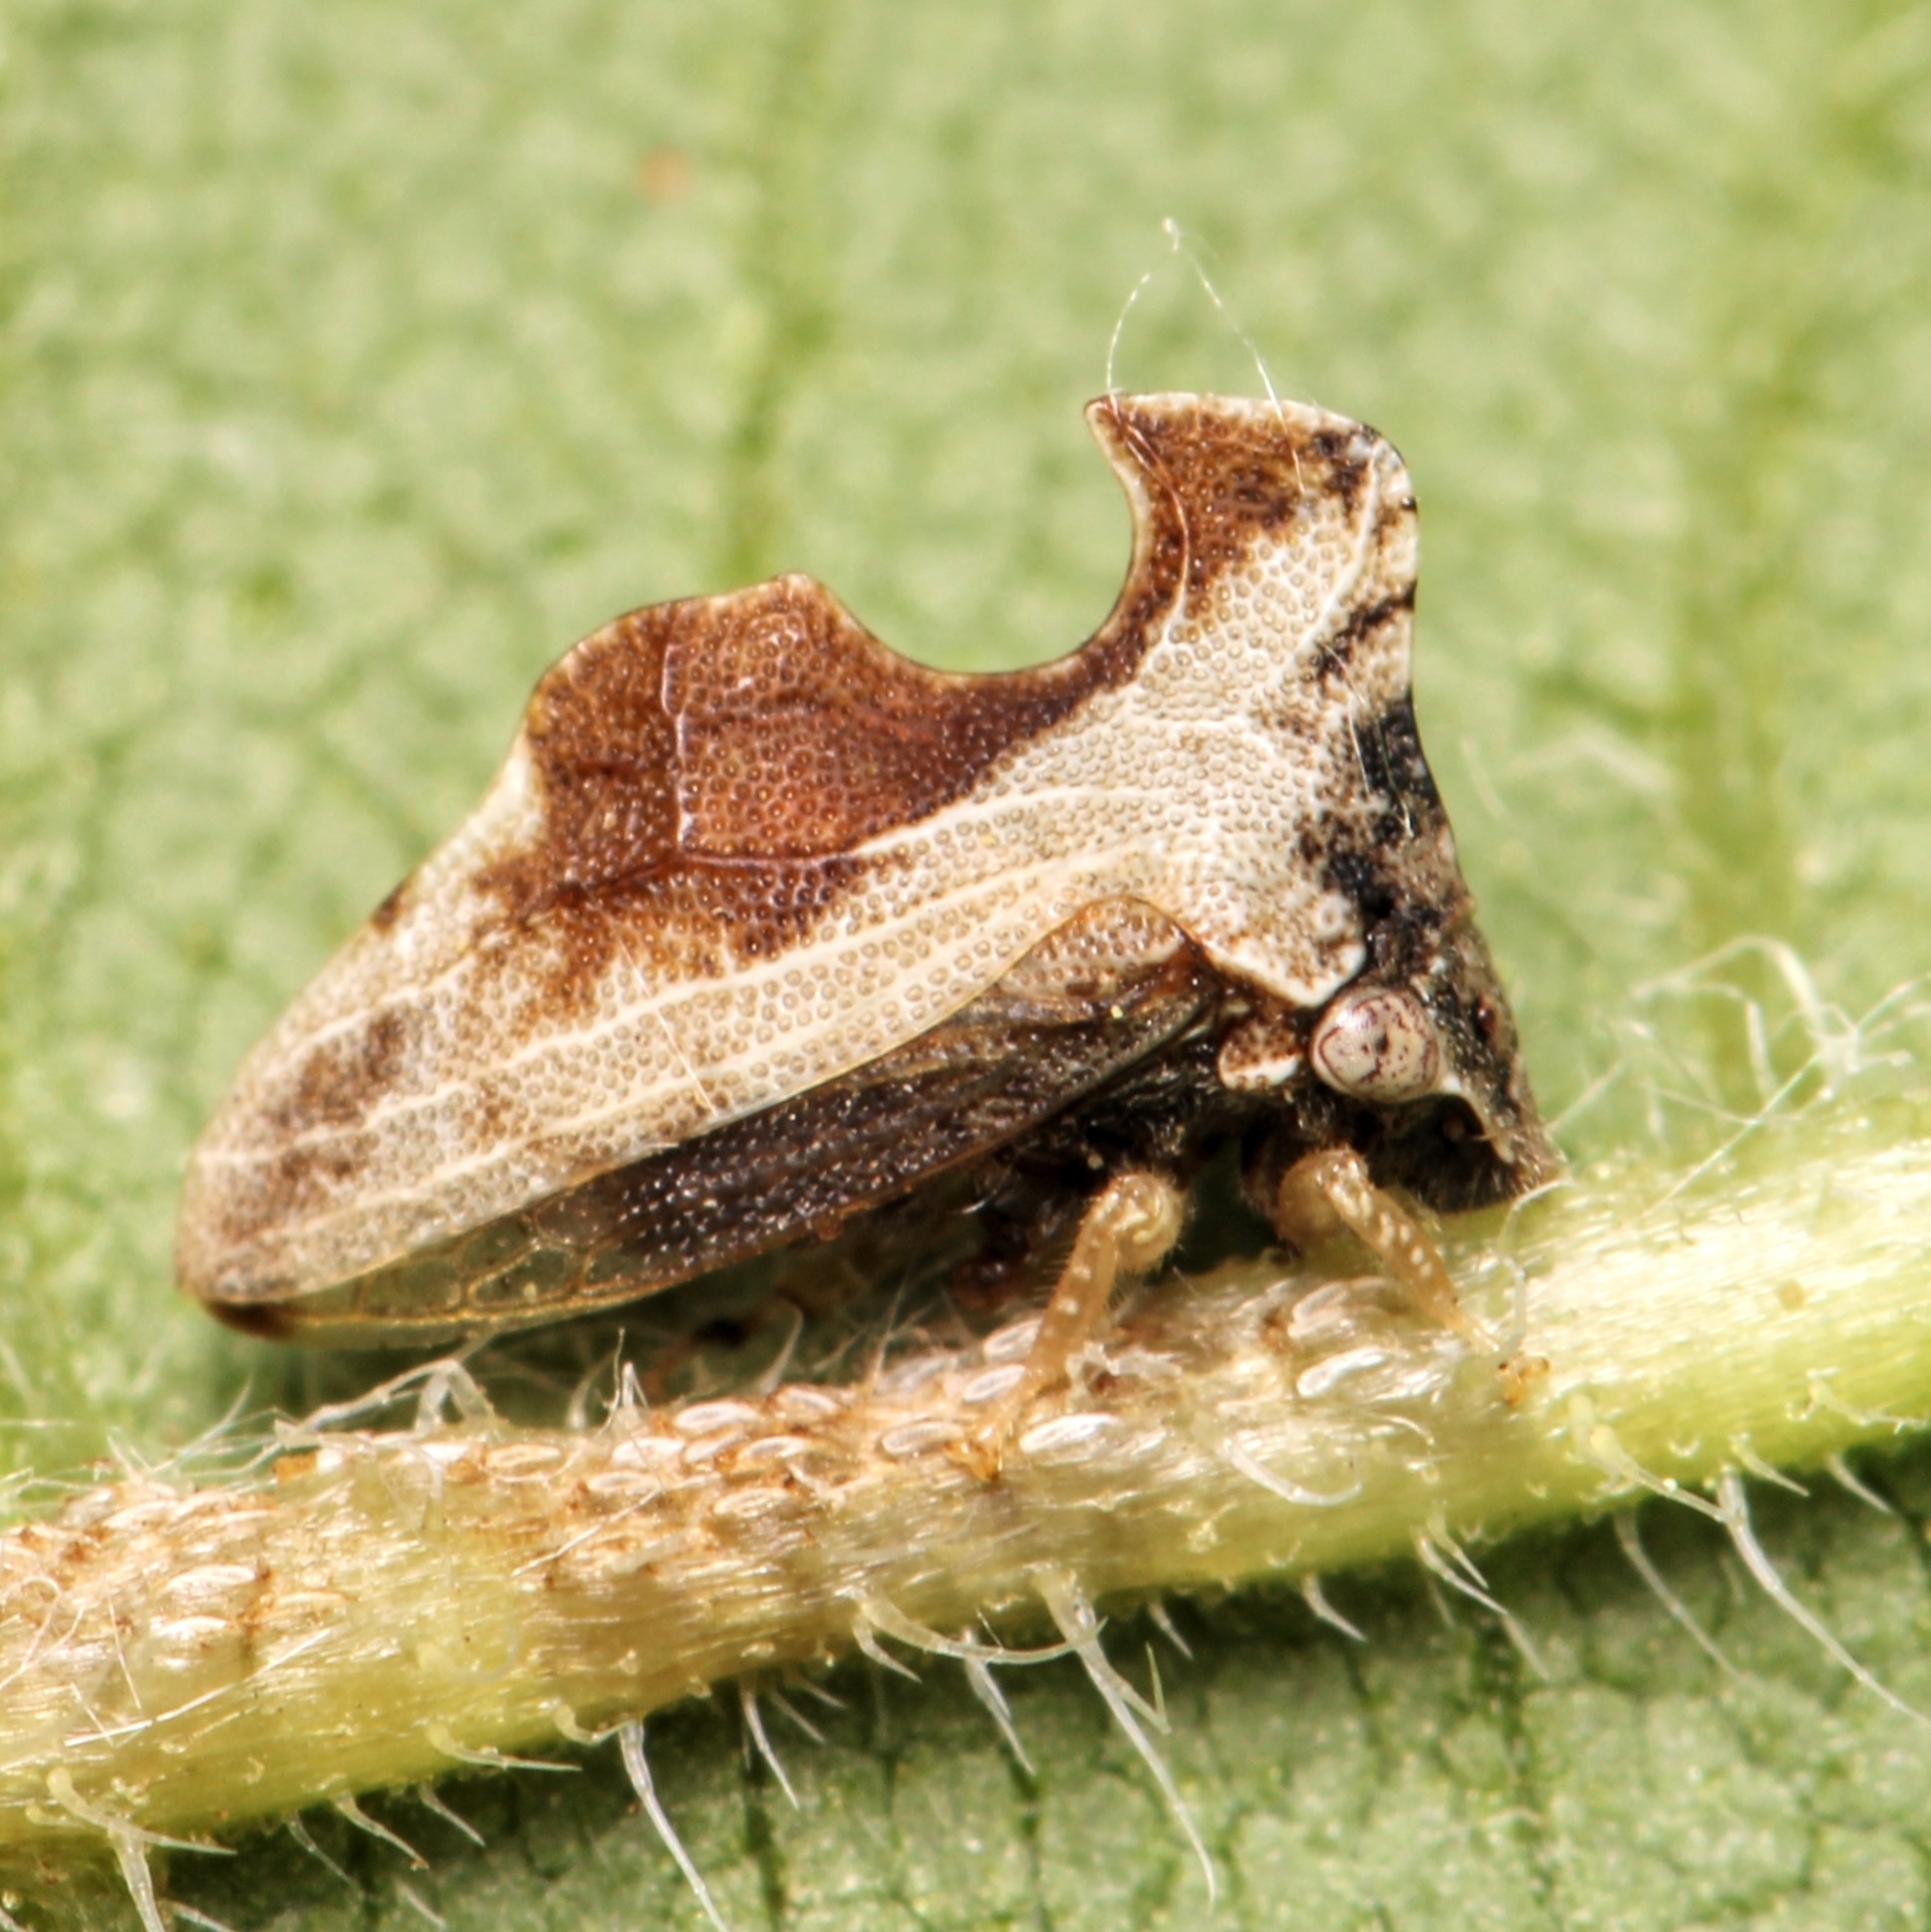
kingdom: Animalia
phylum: Arthropoda
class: Insecta
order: Hemiptera
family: Membracidae
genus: Entylia
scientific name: Entylia carinata
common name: Keeled treehopper
